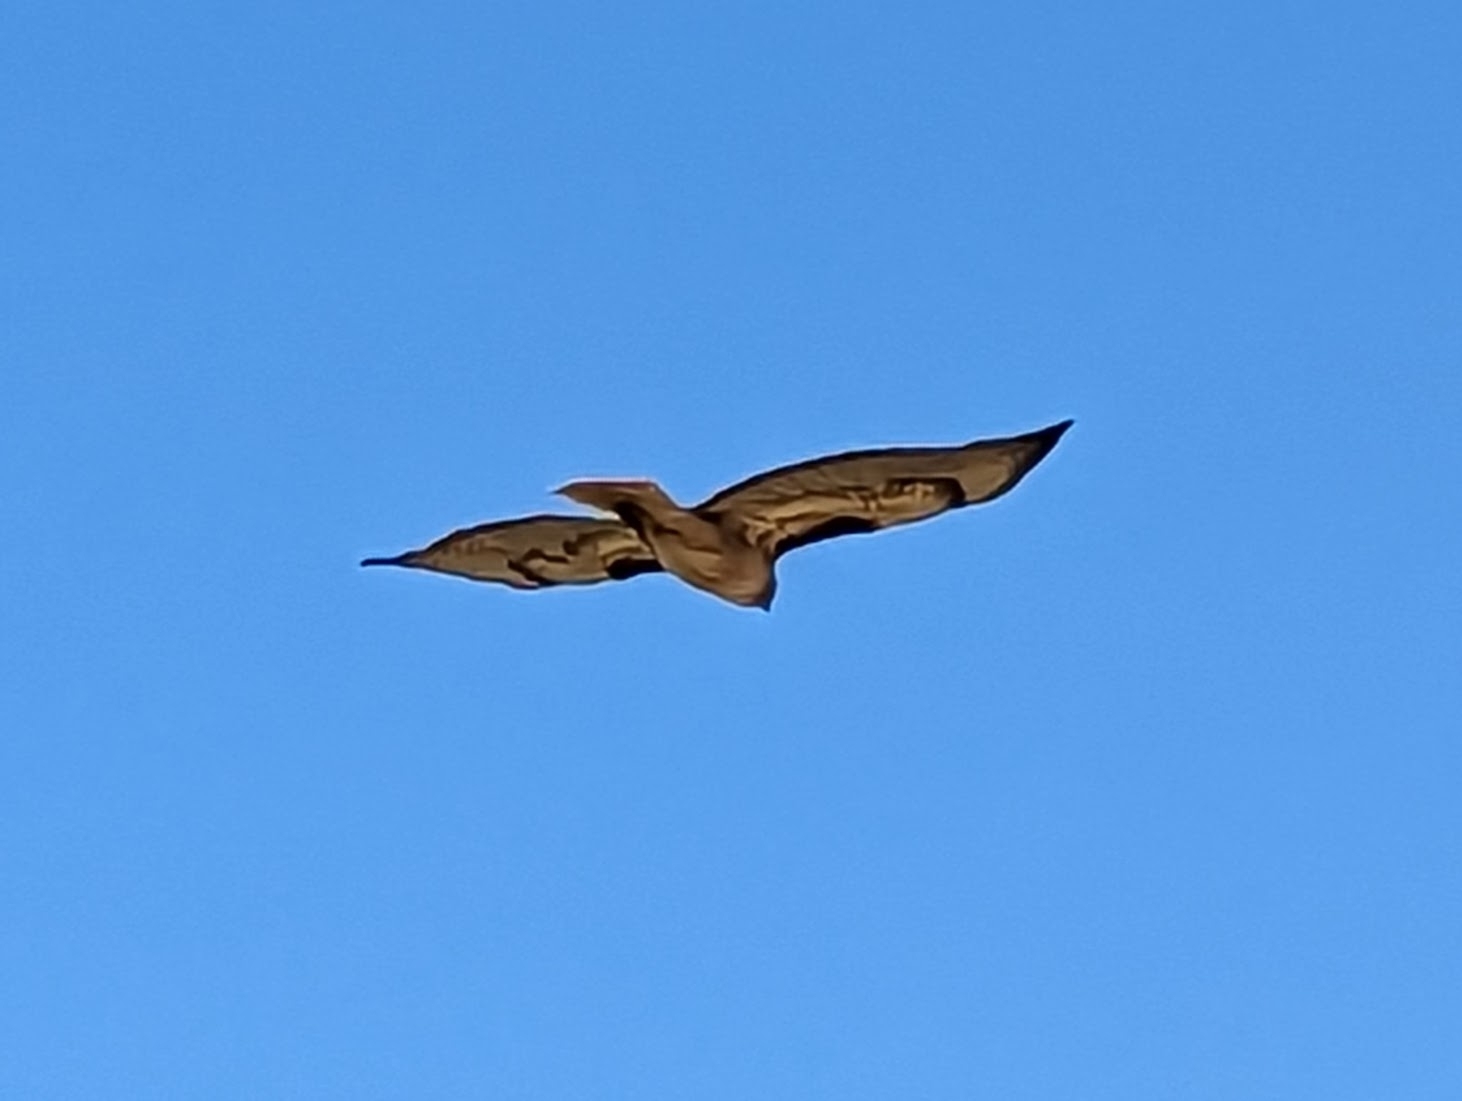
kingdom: Animalia
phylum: Chordata
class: Aves
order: Accipitriformes
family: Accipitridae
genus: Buteo
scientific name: Buteo jamaicensis
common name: Red-tailed hawk
